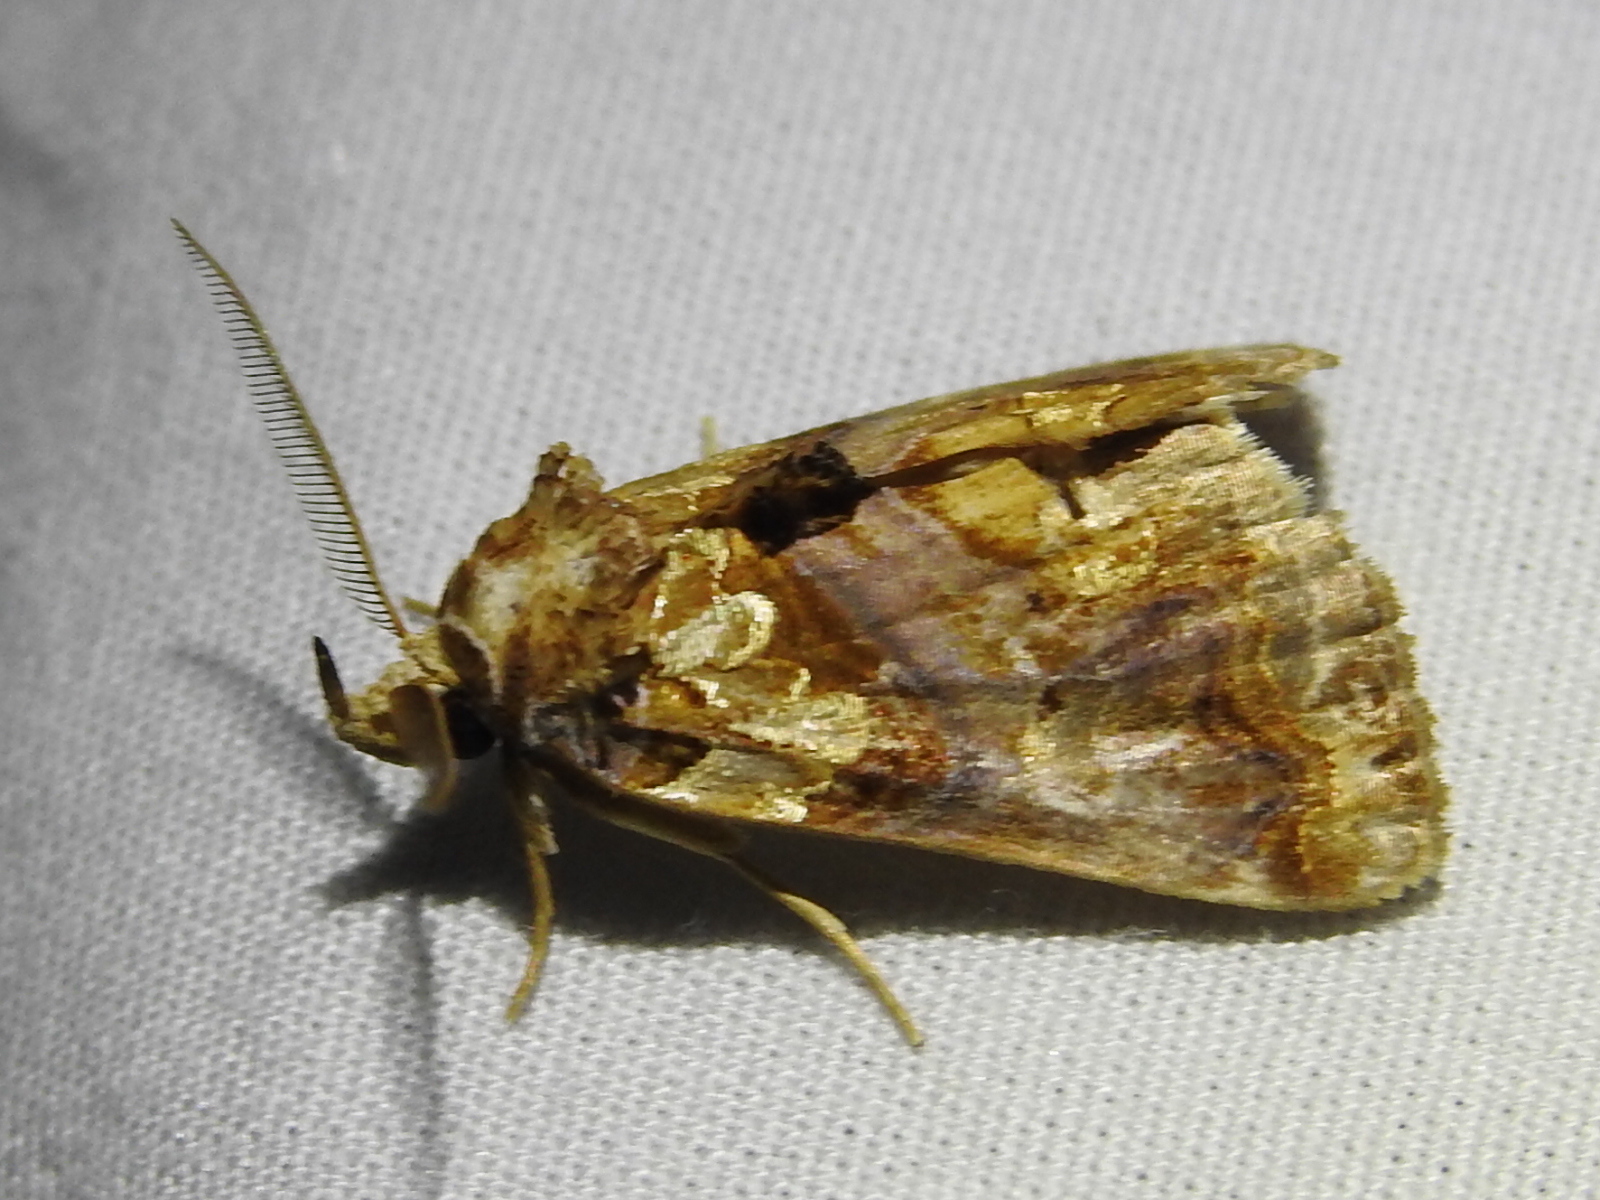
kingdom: Animalia
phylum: Arthropoda
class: Insecta
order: Lepidoptera
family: Erebidae
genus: Plusiodonta
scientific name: Plusiodonta compressipalpis
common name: Moonseed moth
